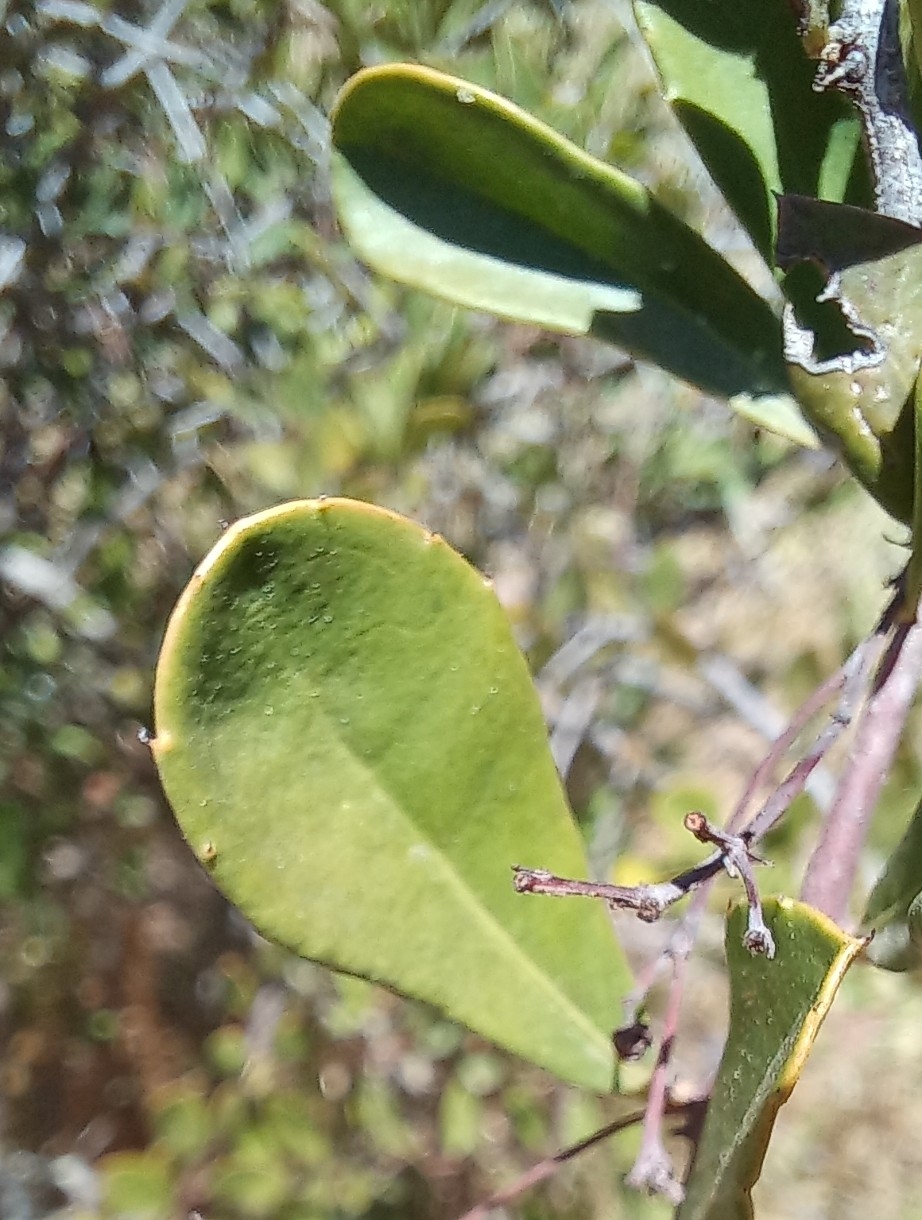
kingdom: Plantae
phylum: Tracheophyta
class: Magnoliopsida
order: Celastrales
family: Celastraceae
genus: Putterlickia
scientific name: Putterlickia pyracantha
